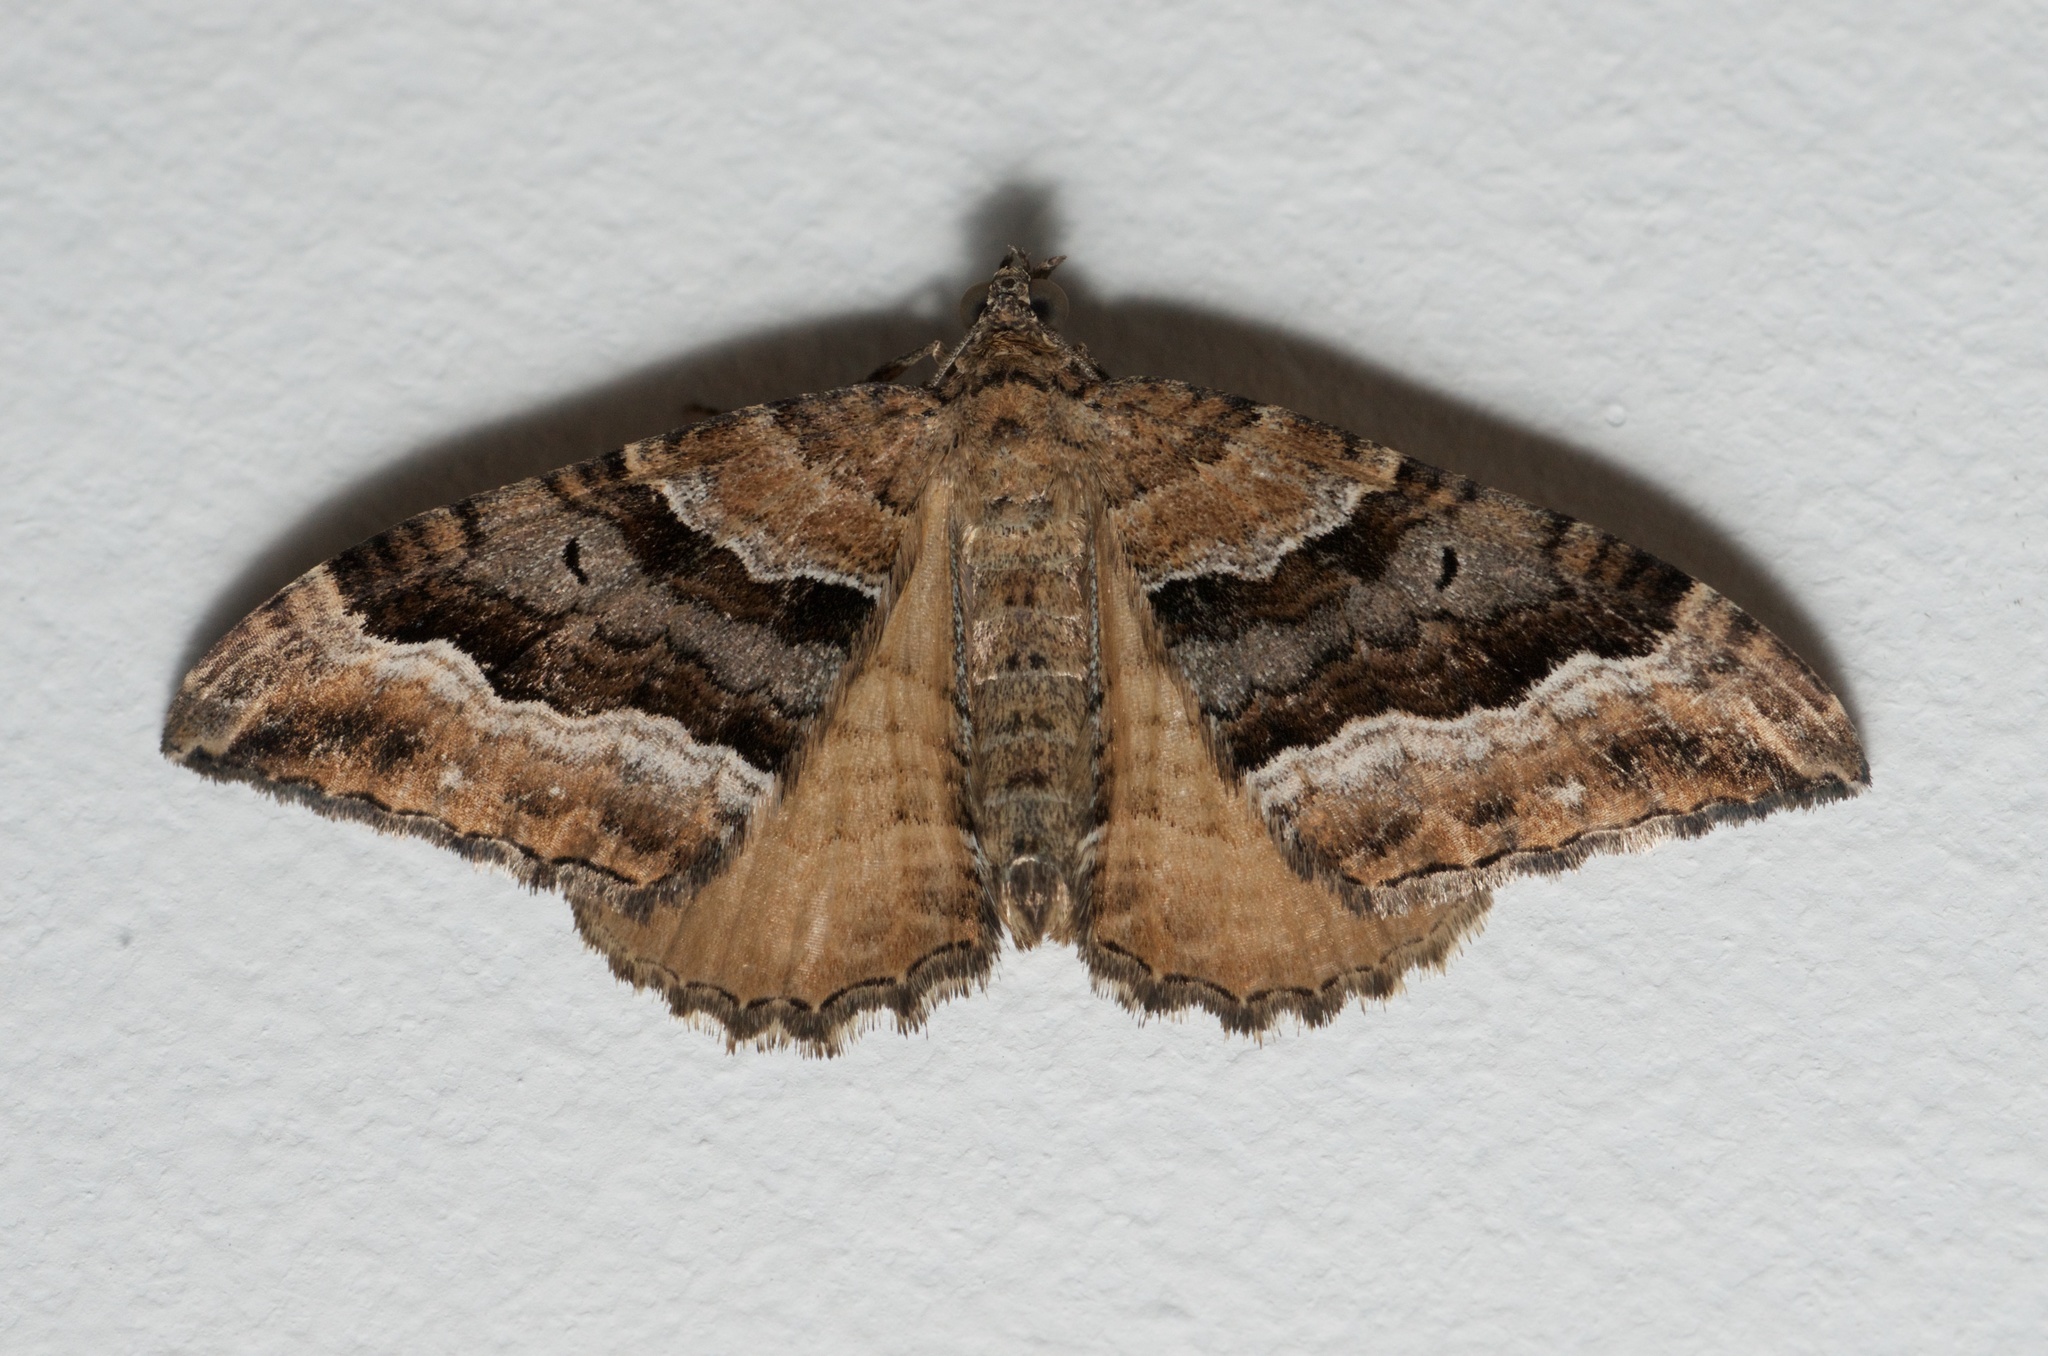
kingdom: Animalia
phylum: Arthropoda
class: Insecta
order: Lepidoptera
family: Geometridae
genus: Hydriomena
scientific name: Hydriomena deltoidata
